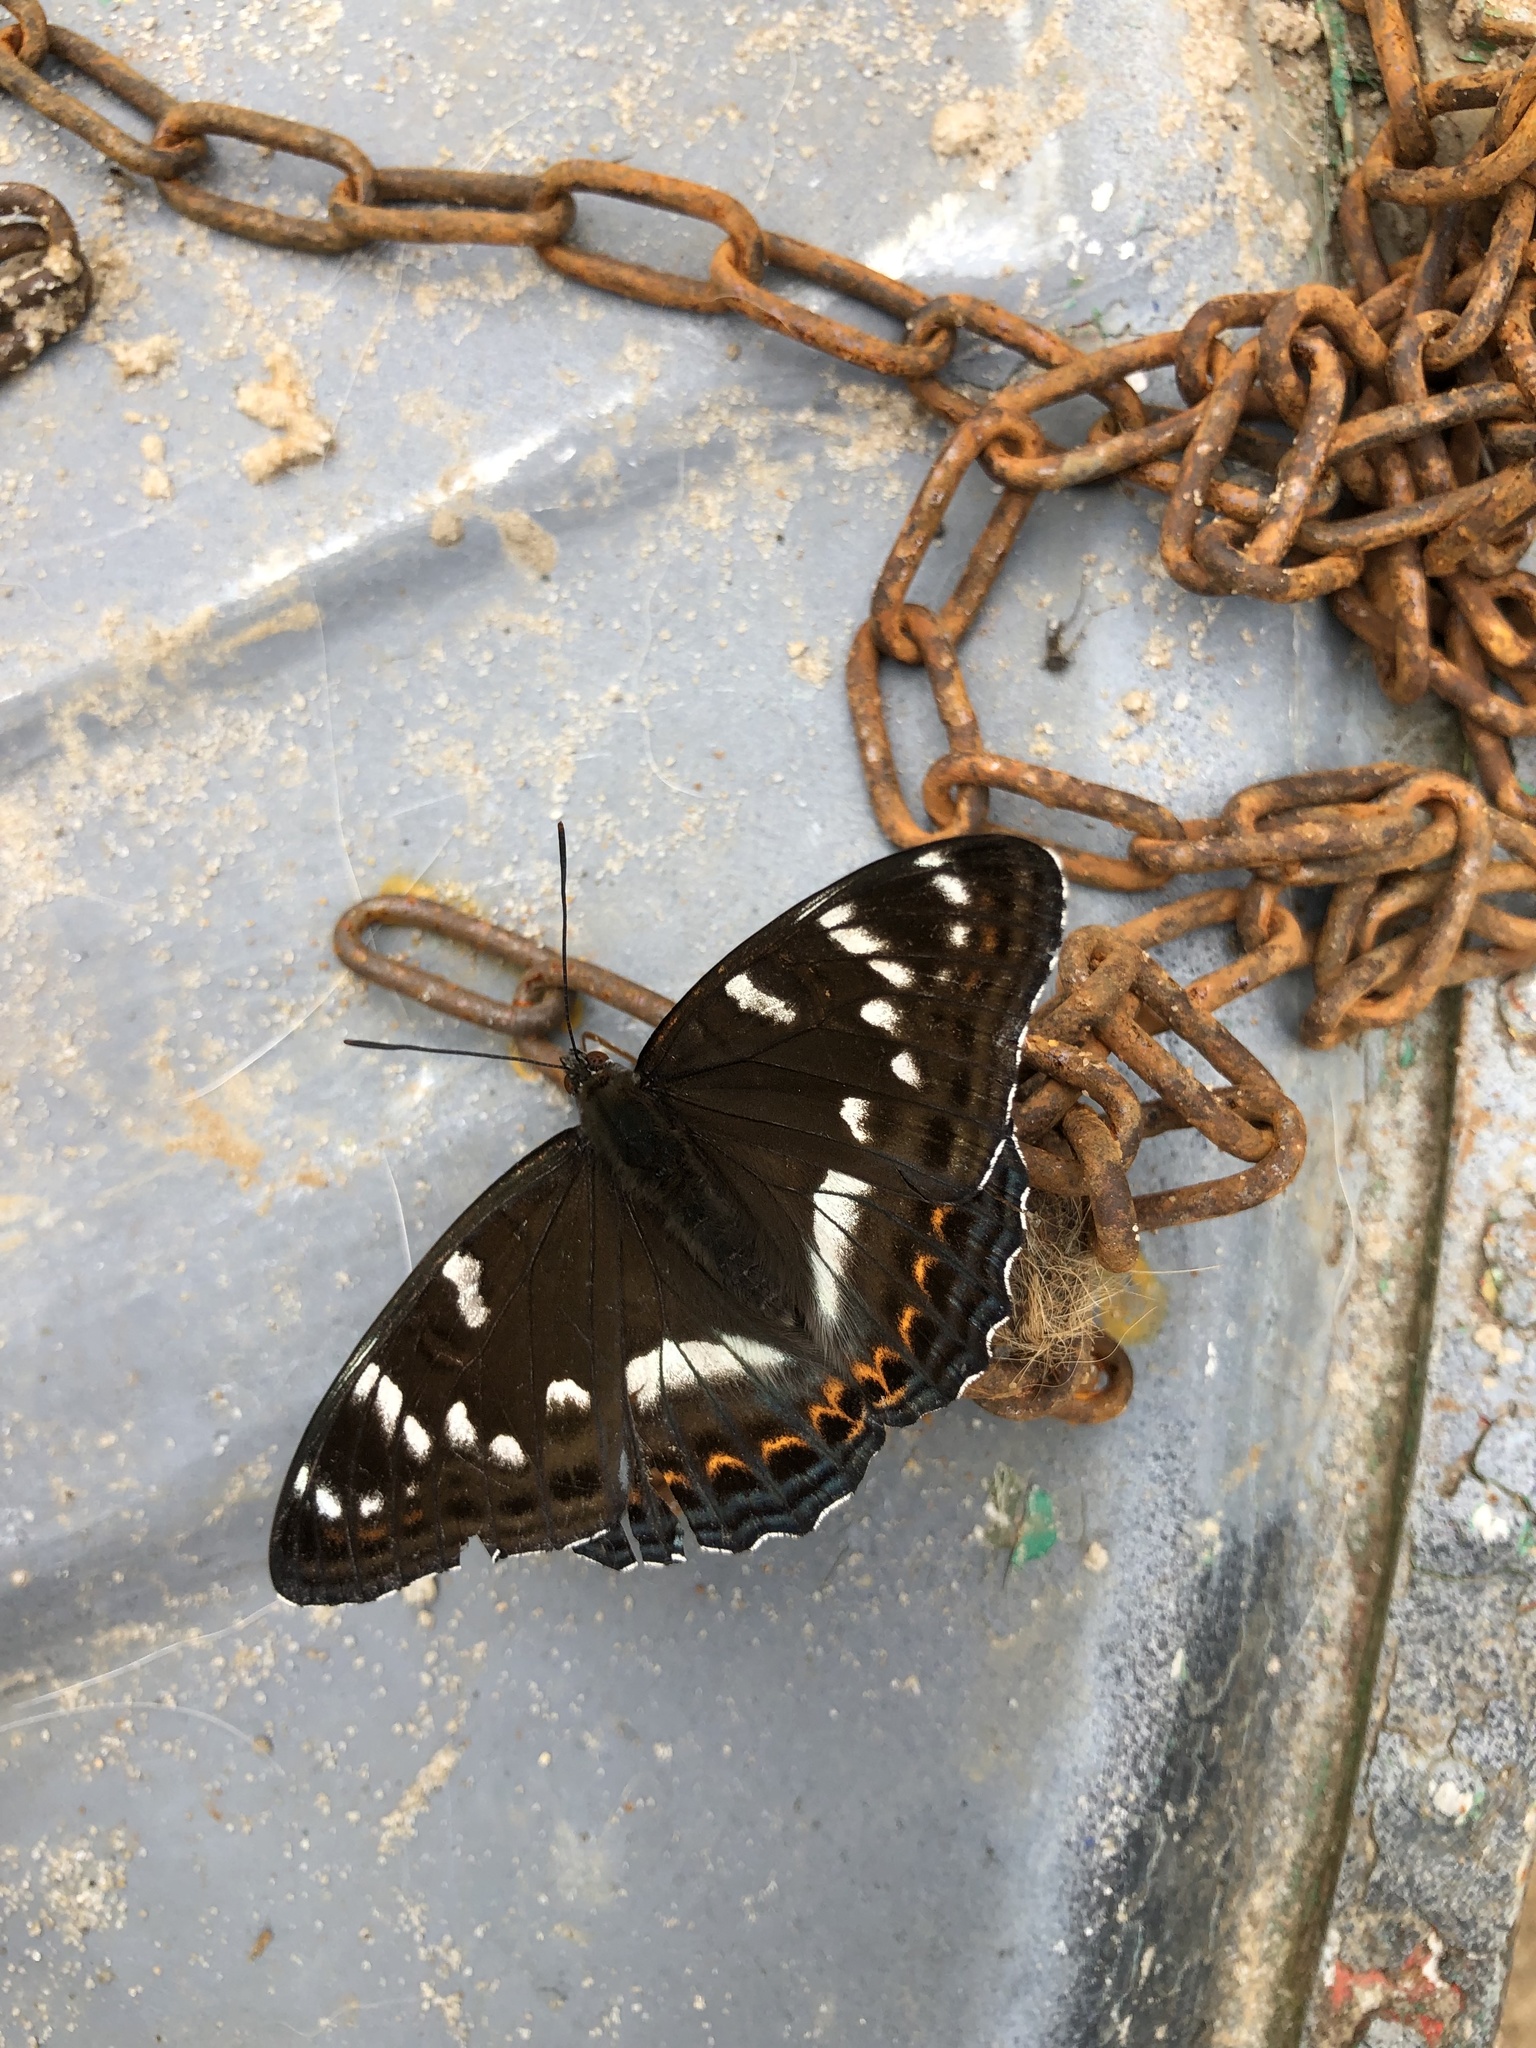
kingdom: Animalia
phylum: Arthropoda
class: Insecta
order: Lepidoptera
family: Nymphalidae
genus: Limenitis
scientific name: Limenitis populi
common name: Poplar admiral
